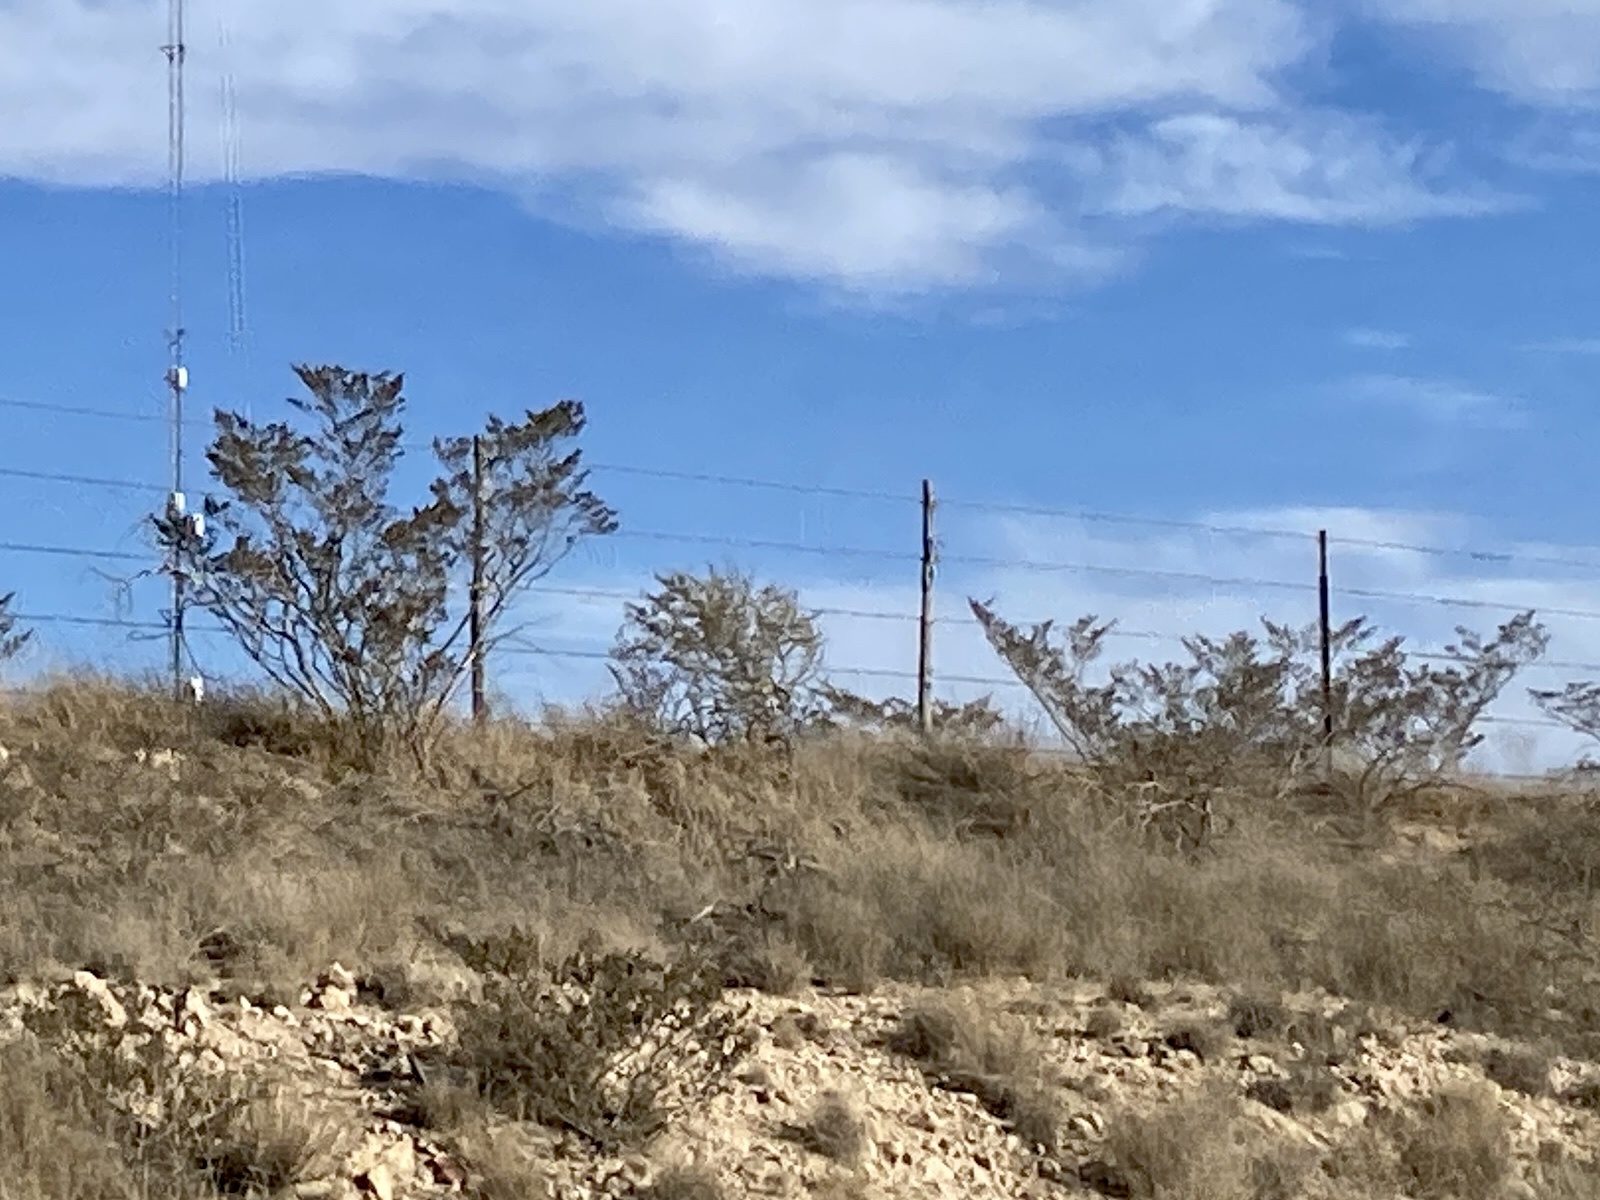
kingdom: Plantae
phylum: Tracheophyta
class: Magnoliopsida
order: Zygophyllales
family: Zygophyllaceae
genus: Larrea
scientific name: Larrea tridentata
